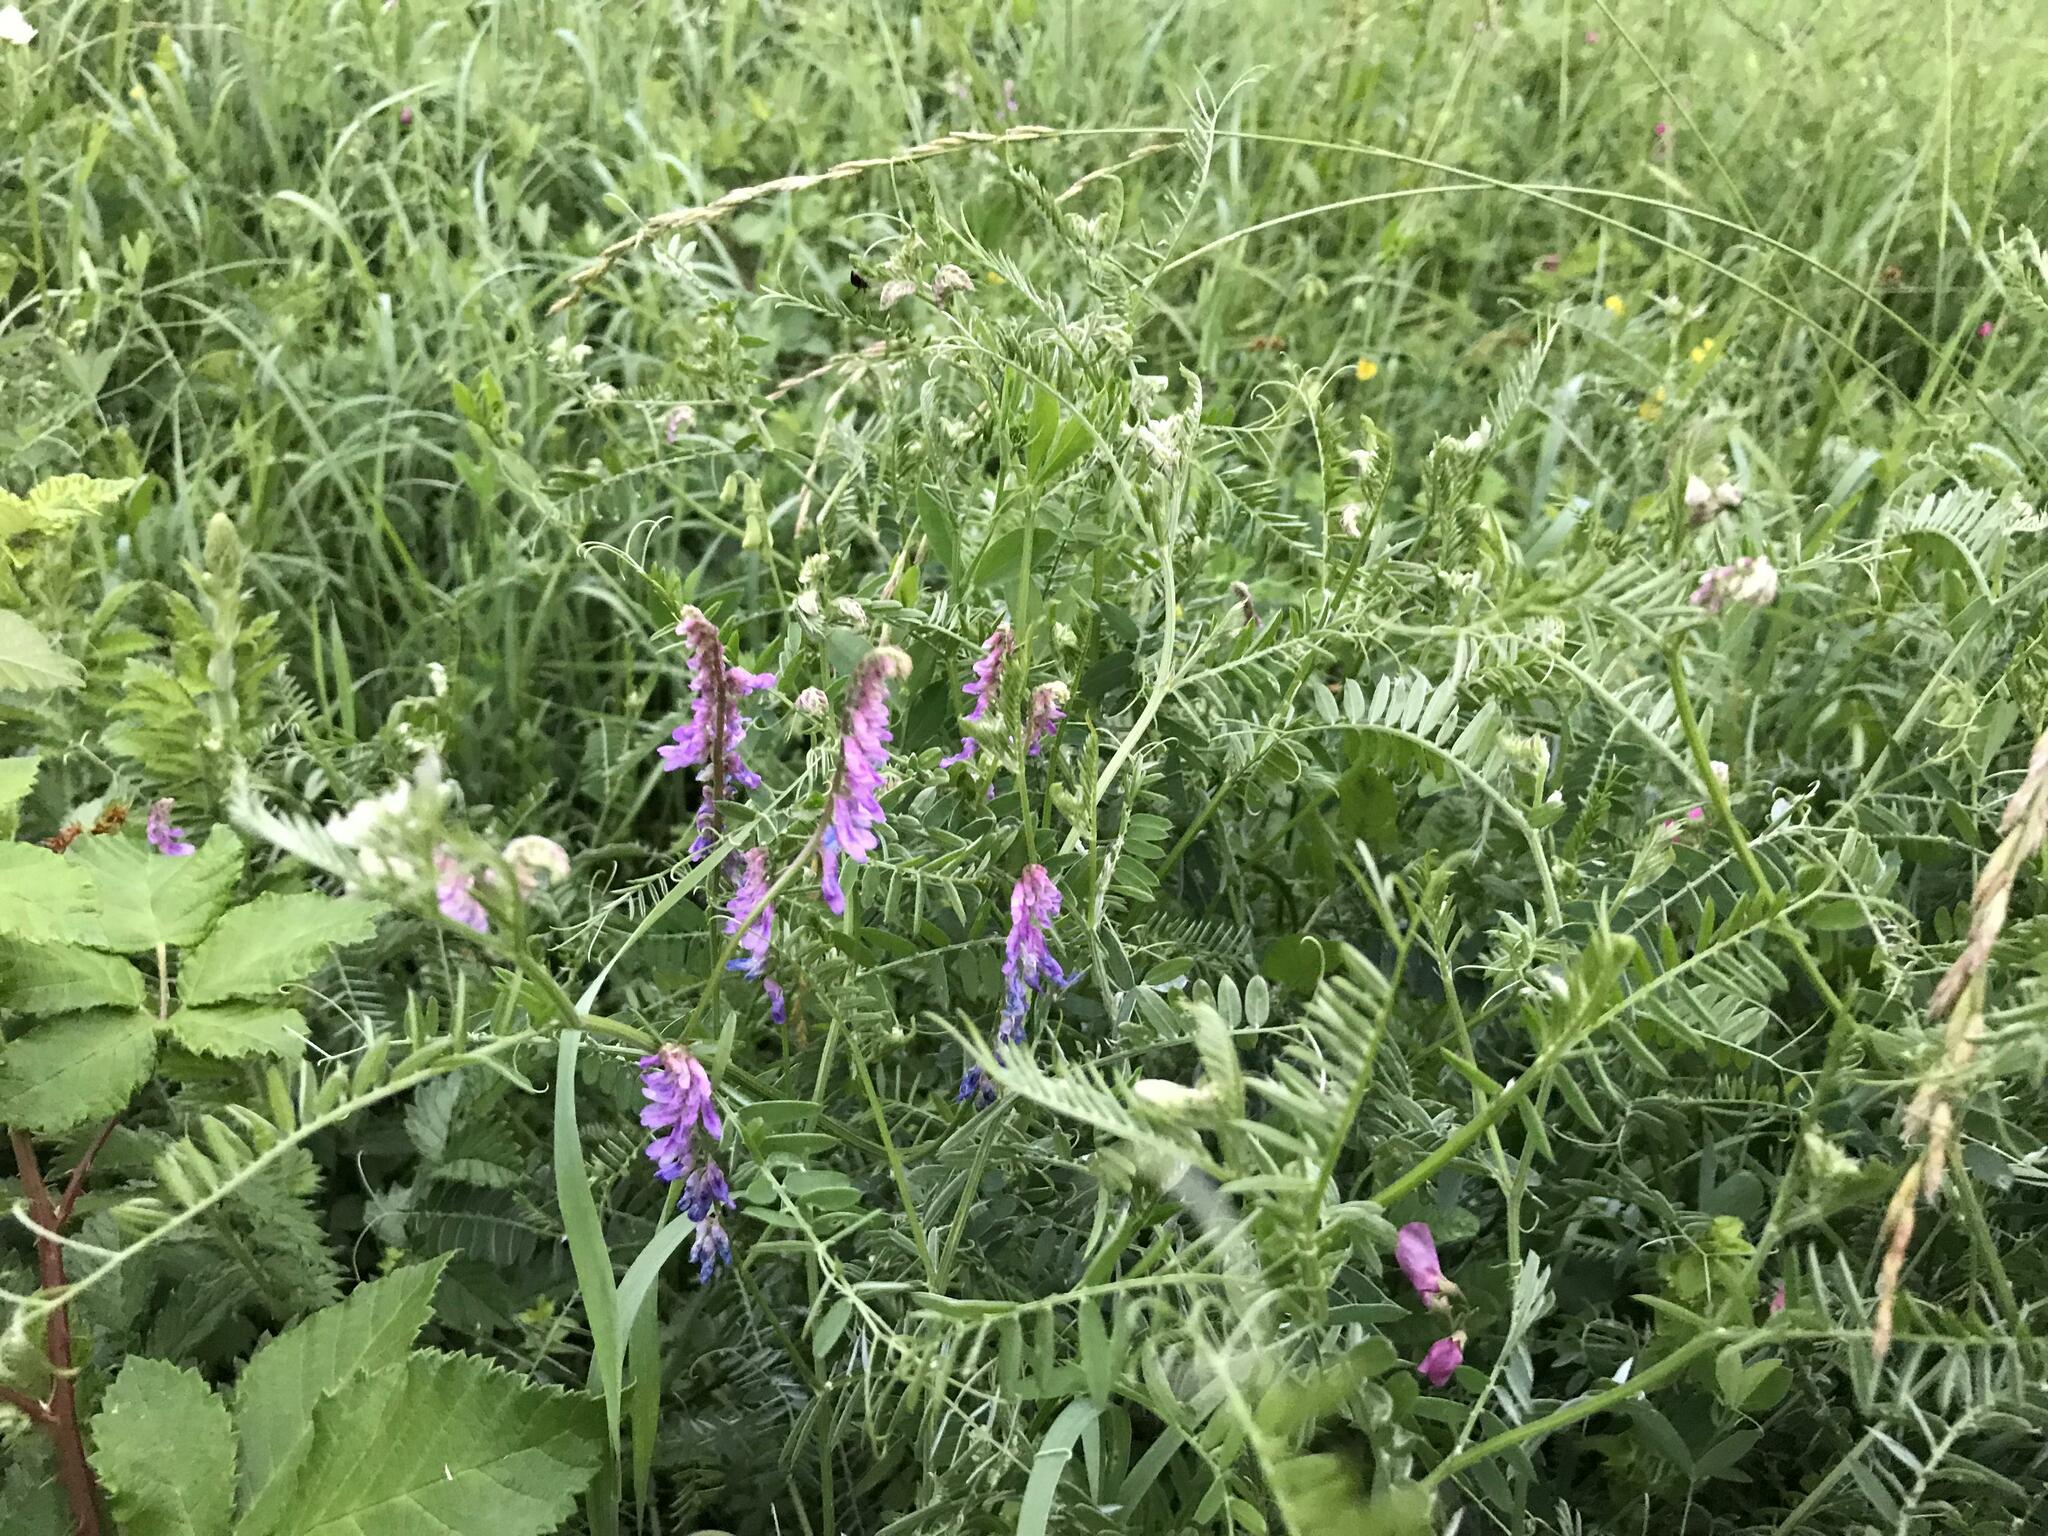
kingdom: Plantae
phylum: Tracheophyta
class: Magnoliopsida
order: Fabales
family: Fabaceae
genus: Vicia
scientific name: Vicia cracca
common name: Bird vetch
